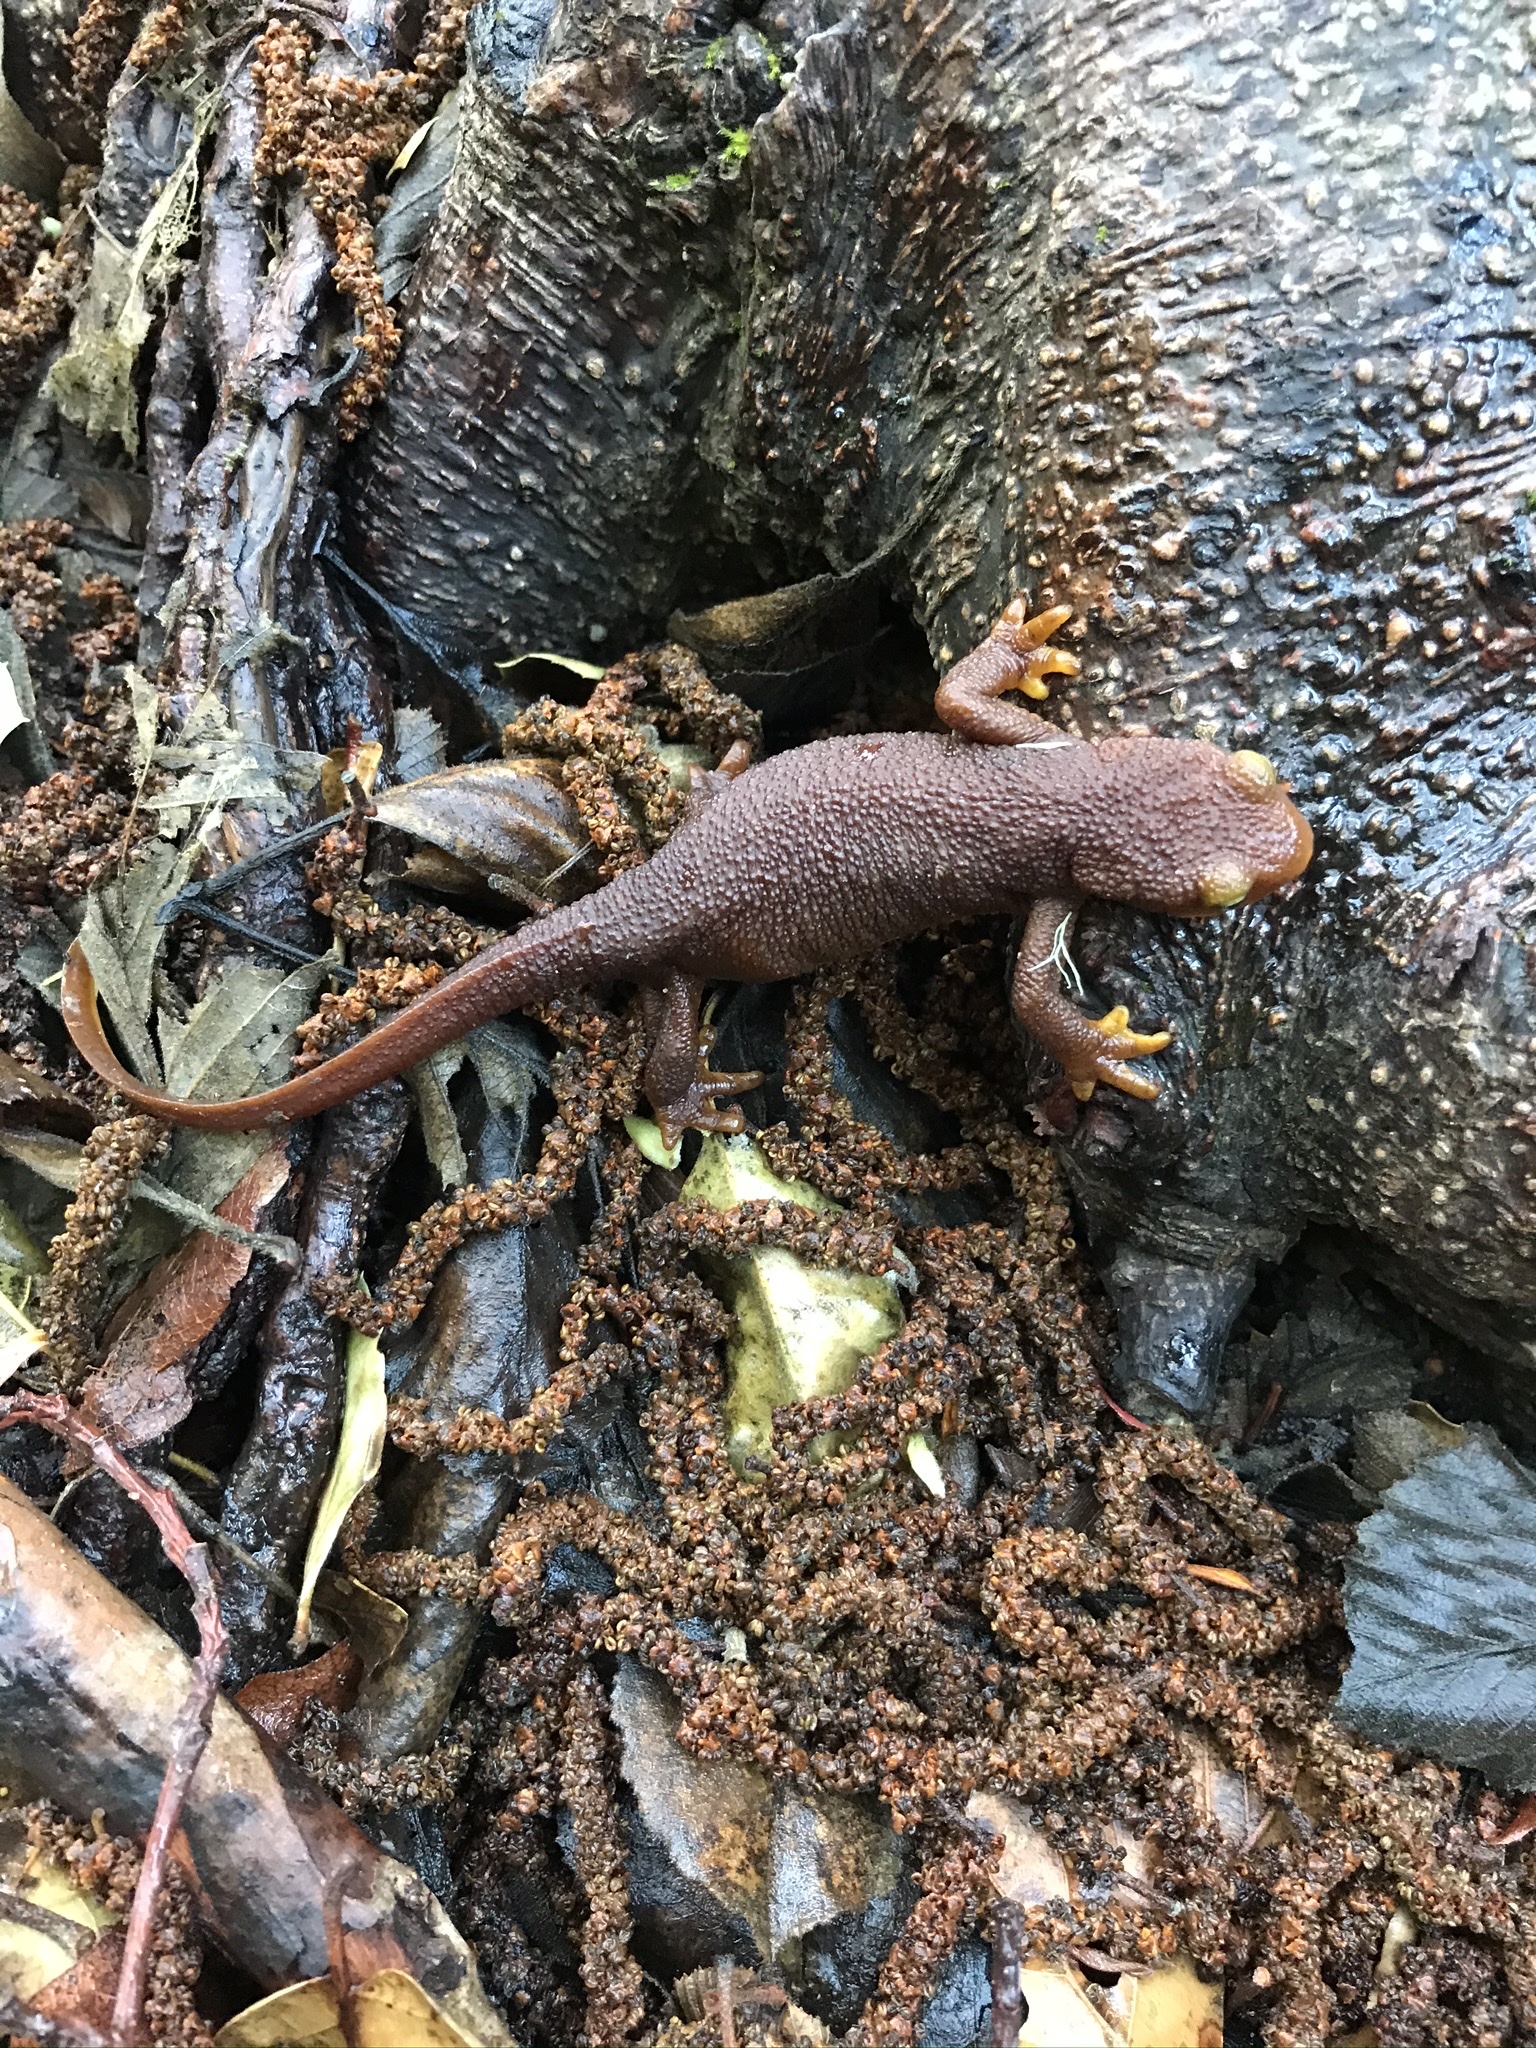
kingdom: Animalia
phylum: Chordata
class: Amphibia
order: Caudata
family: Salamandridae
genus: Taricha
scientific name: Taricha torosa
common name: California newt
